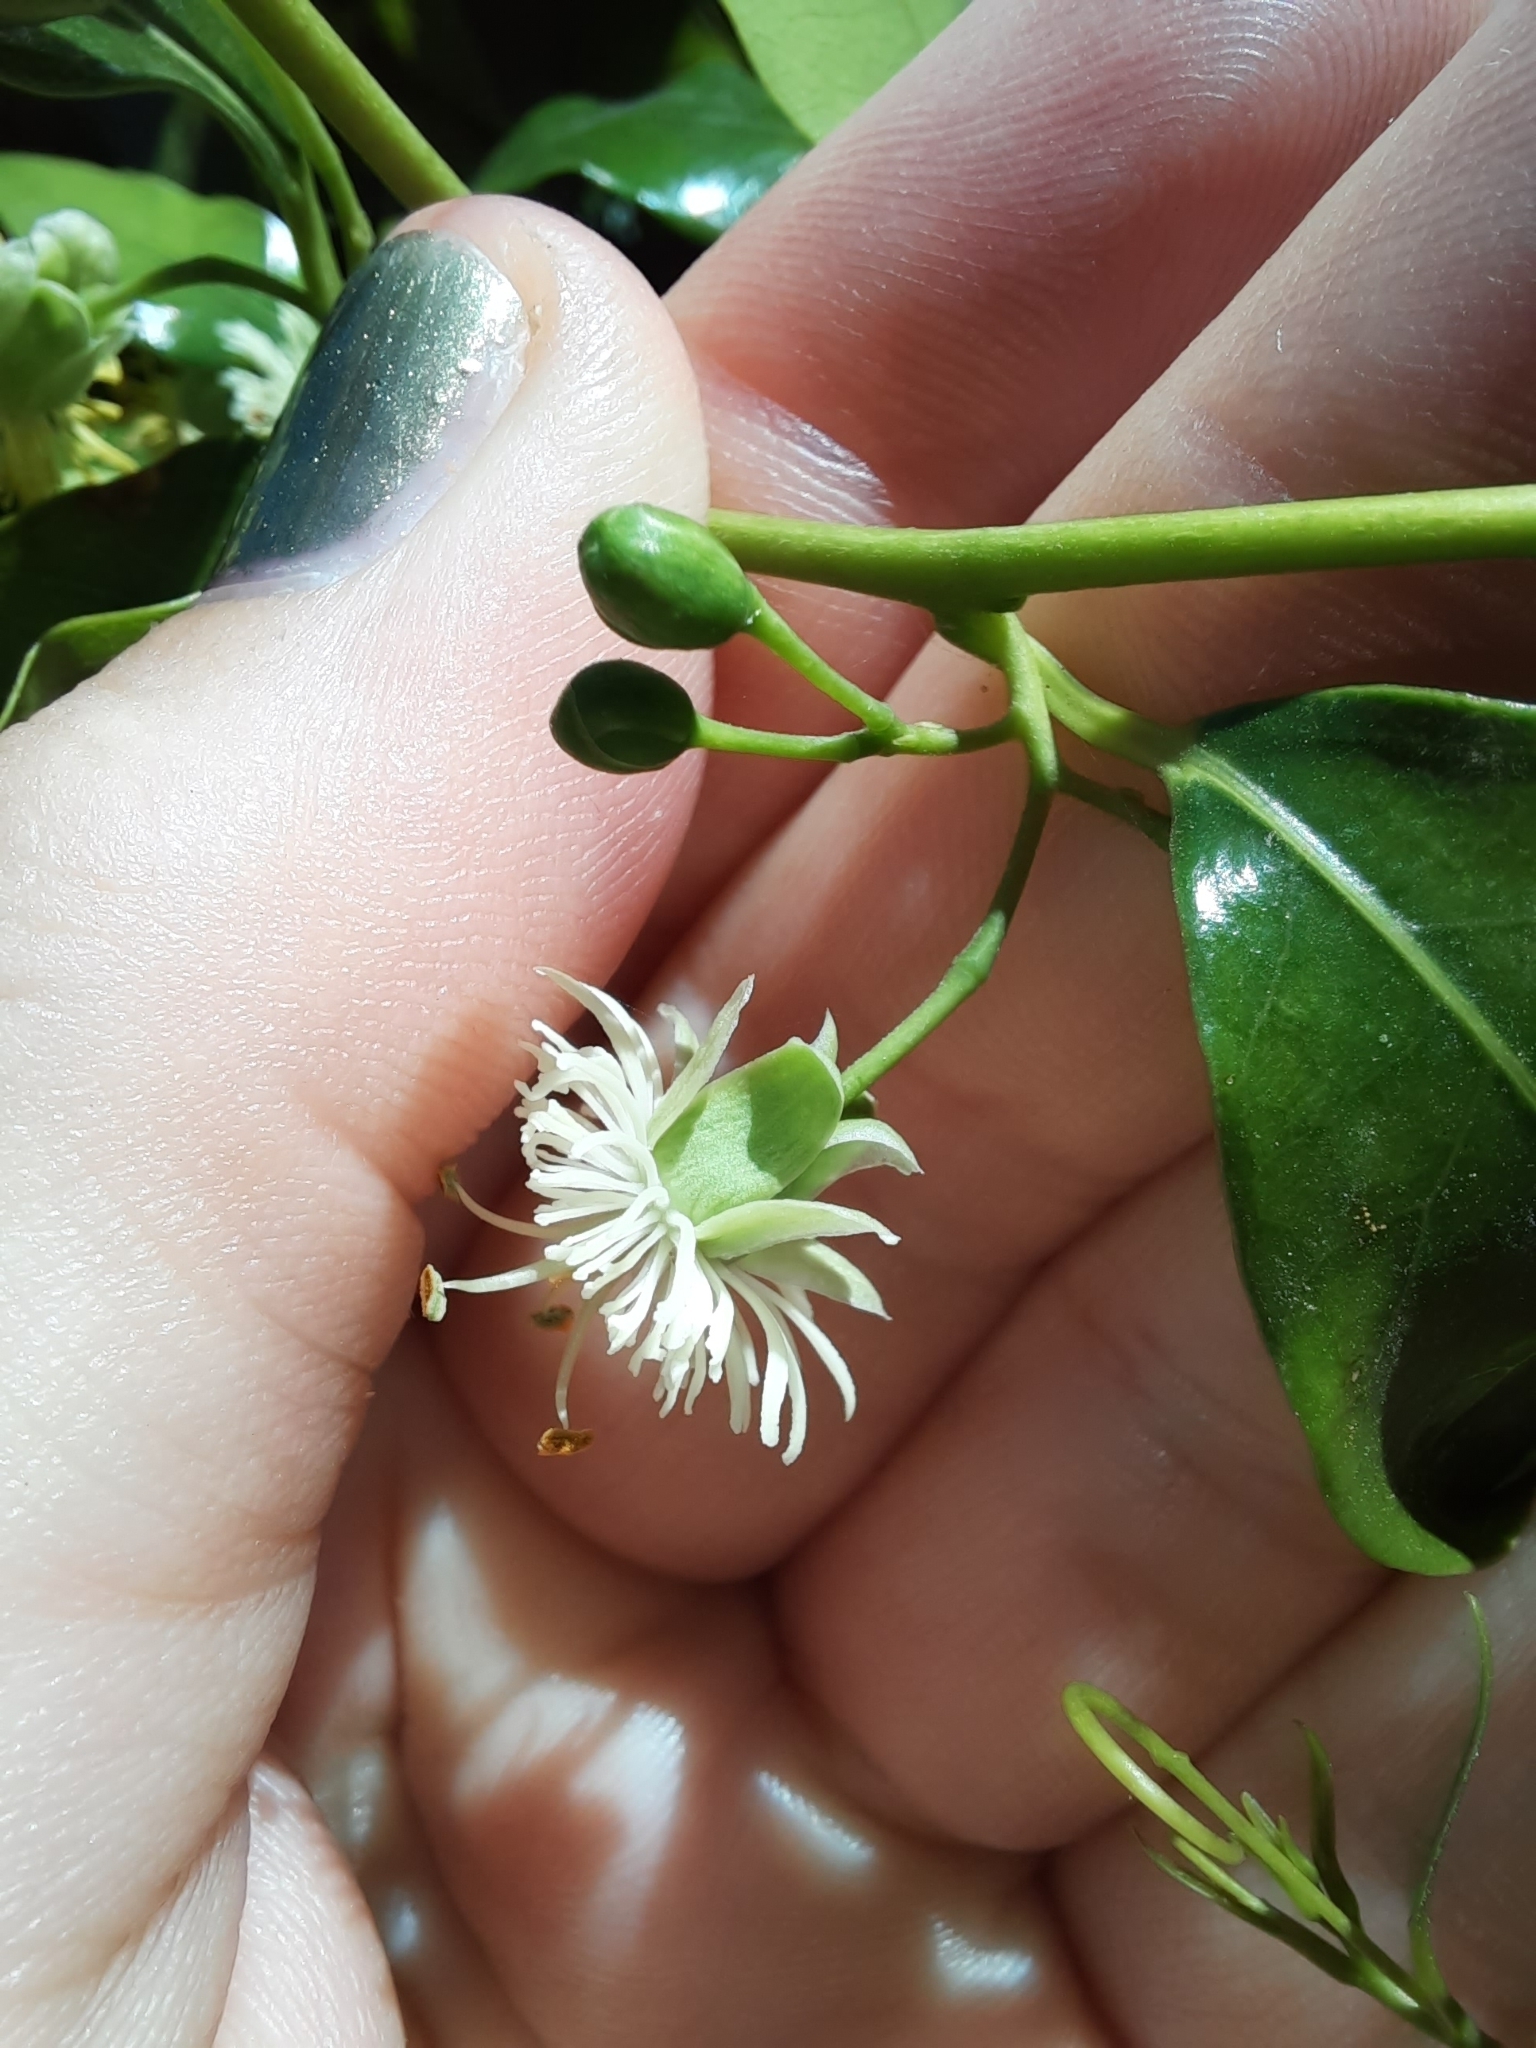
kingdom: Plantae
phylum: Tracheophyta
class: Magnoliopsida
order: Malpighiales
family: Passifloraceae
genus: Passiflora
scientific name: Passiflora tetrandra
